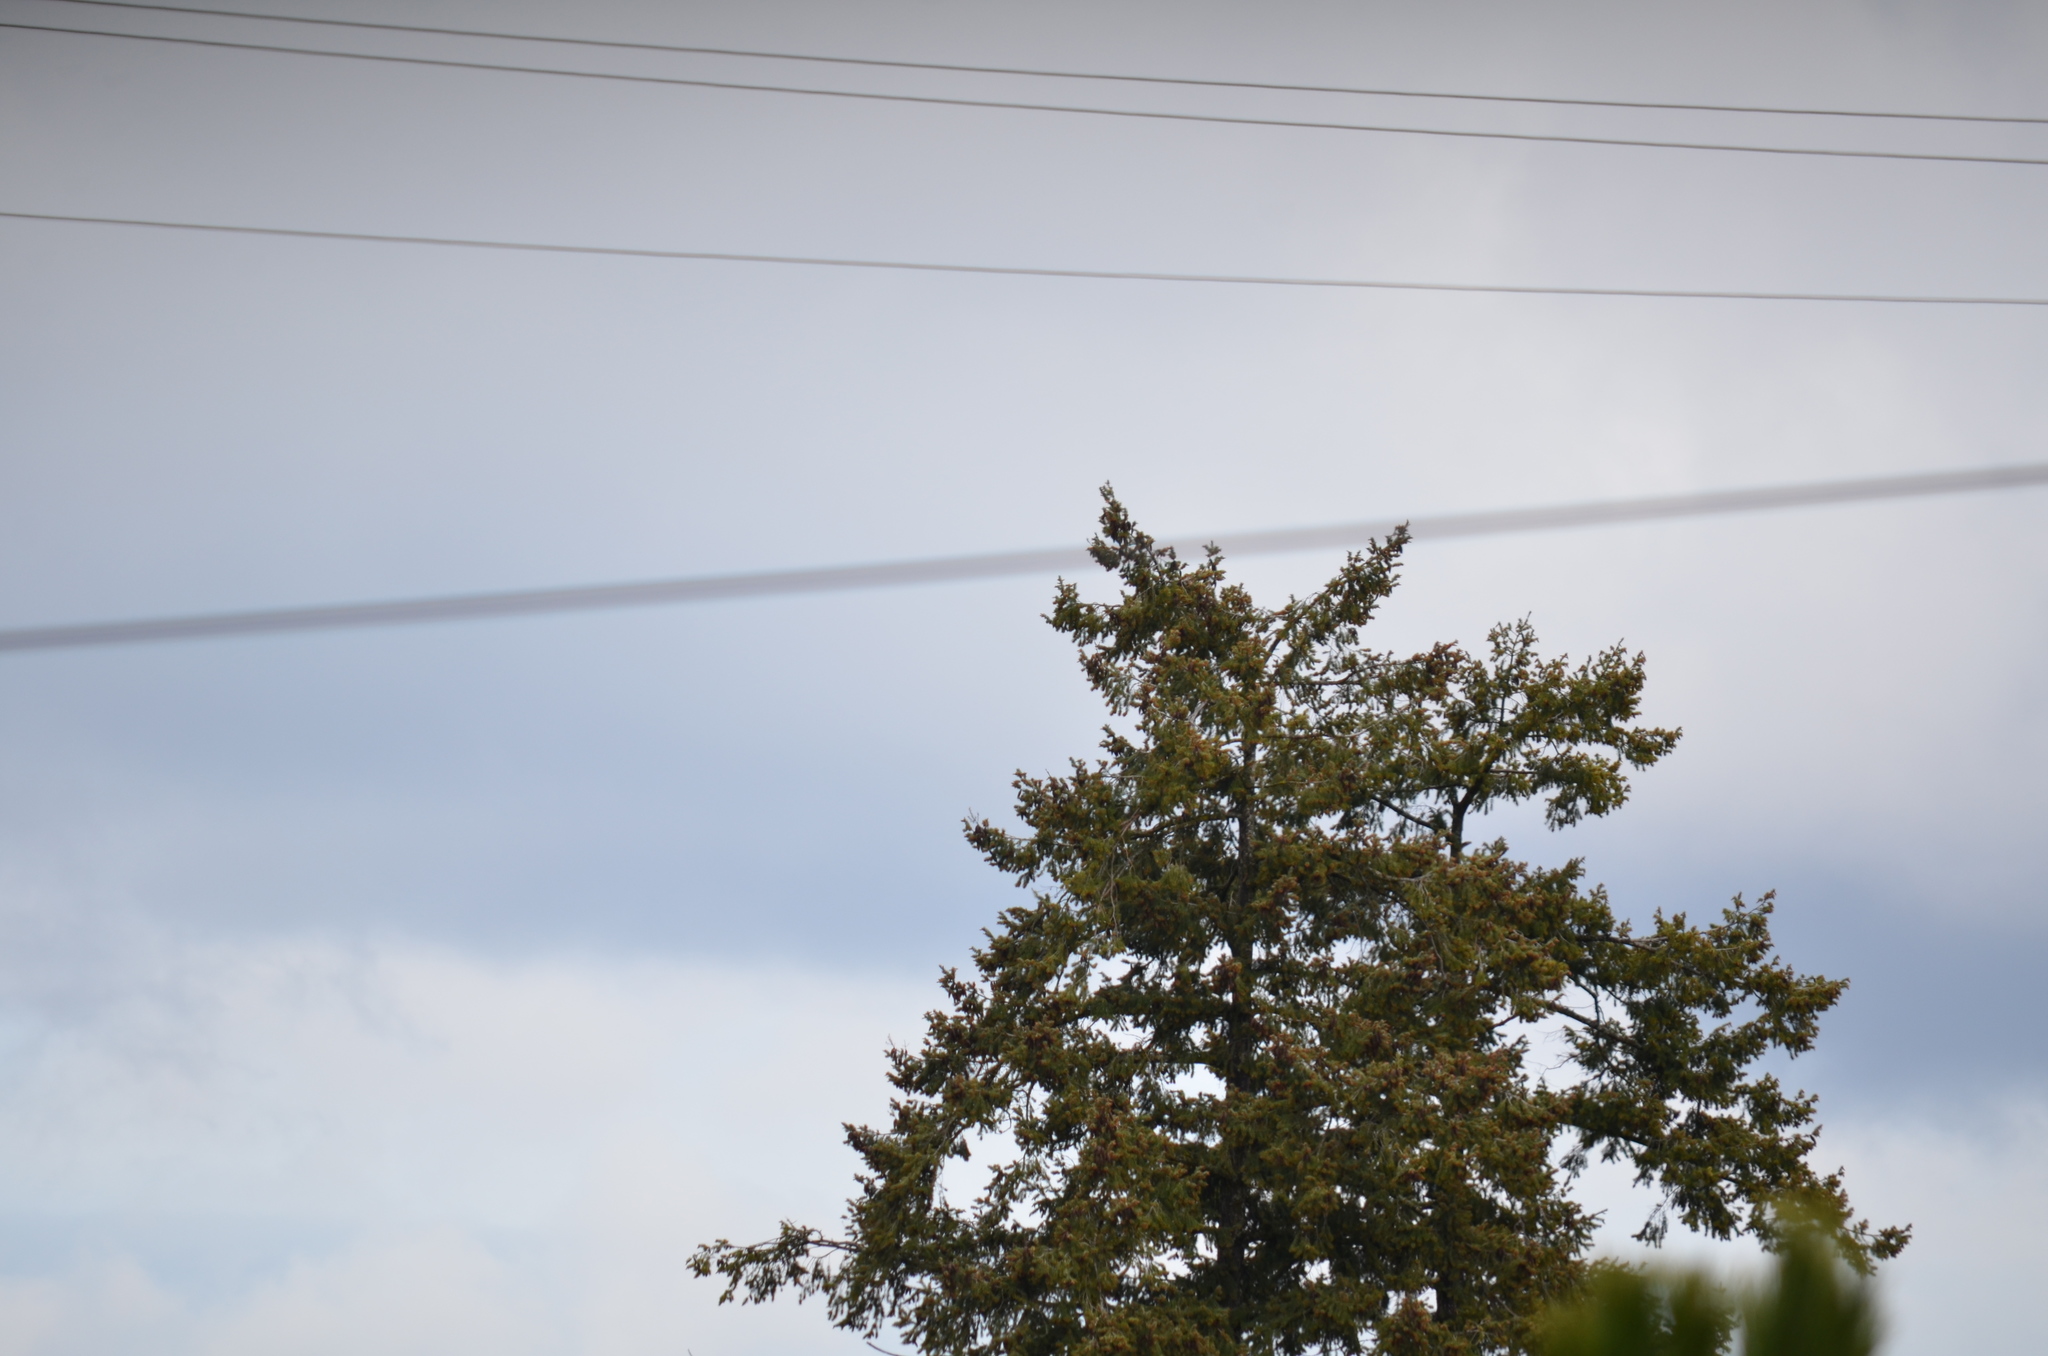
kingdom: Plantae
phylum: Tracheophyta
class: Pinopsida
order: Pinales
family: Pinaceae
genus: Pseudotsuga
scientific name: Pseudotsuga menziesii
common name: Douglas fir
